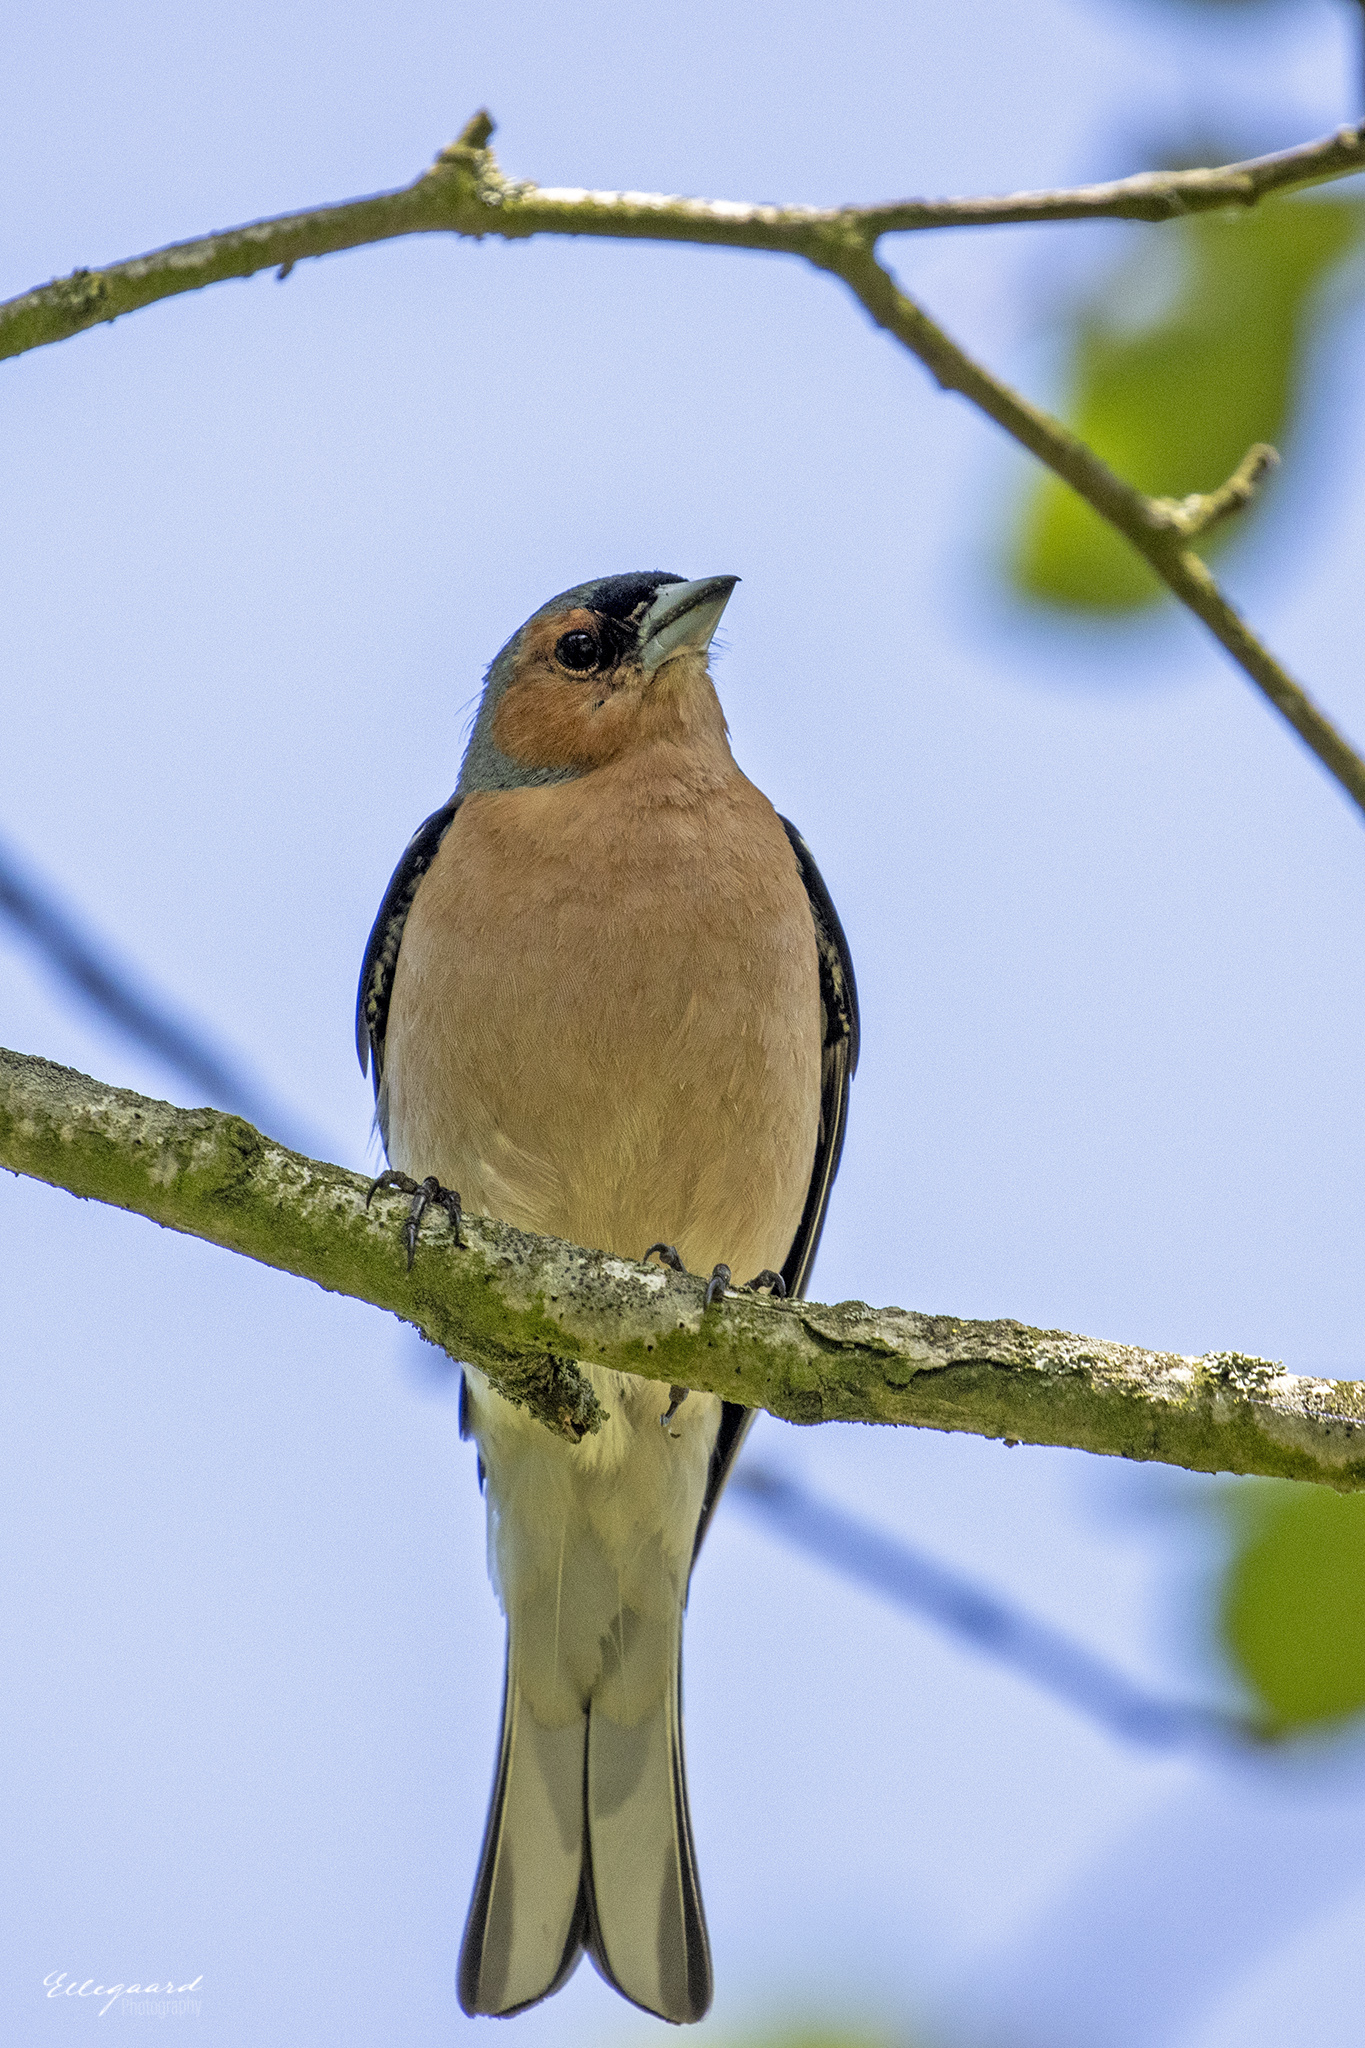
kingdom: Animalia
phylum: Chordata
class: Aves
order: Passeriformes
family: Fringillidae
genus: Fringilla
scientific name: Fringilla coelebs
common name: Common chaffinch
